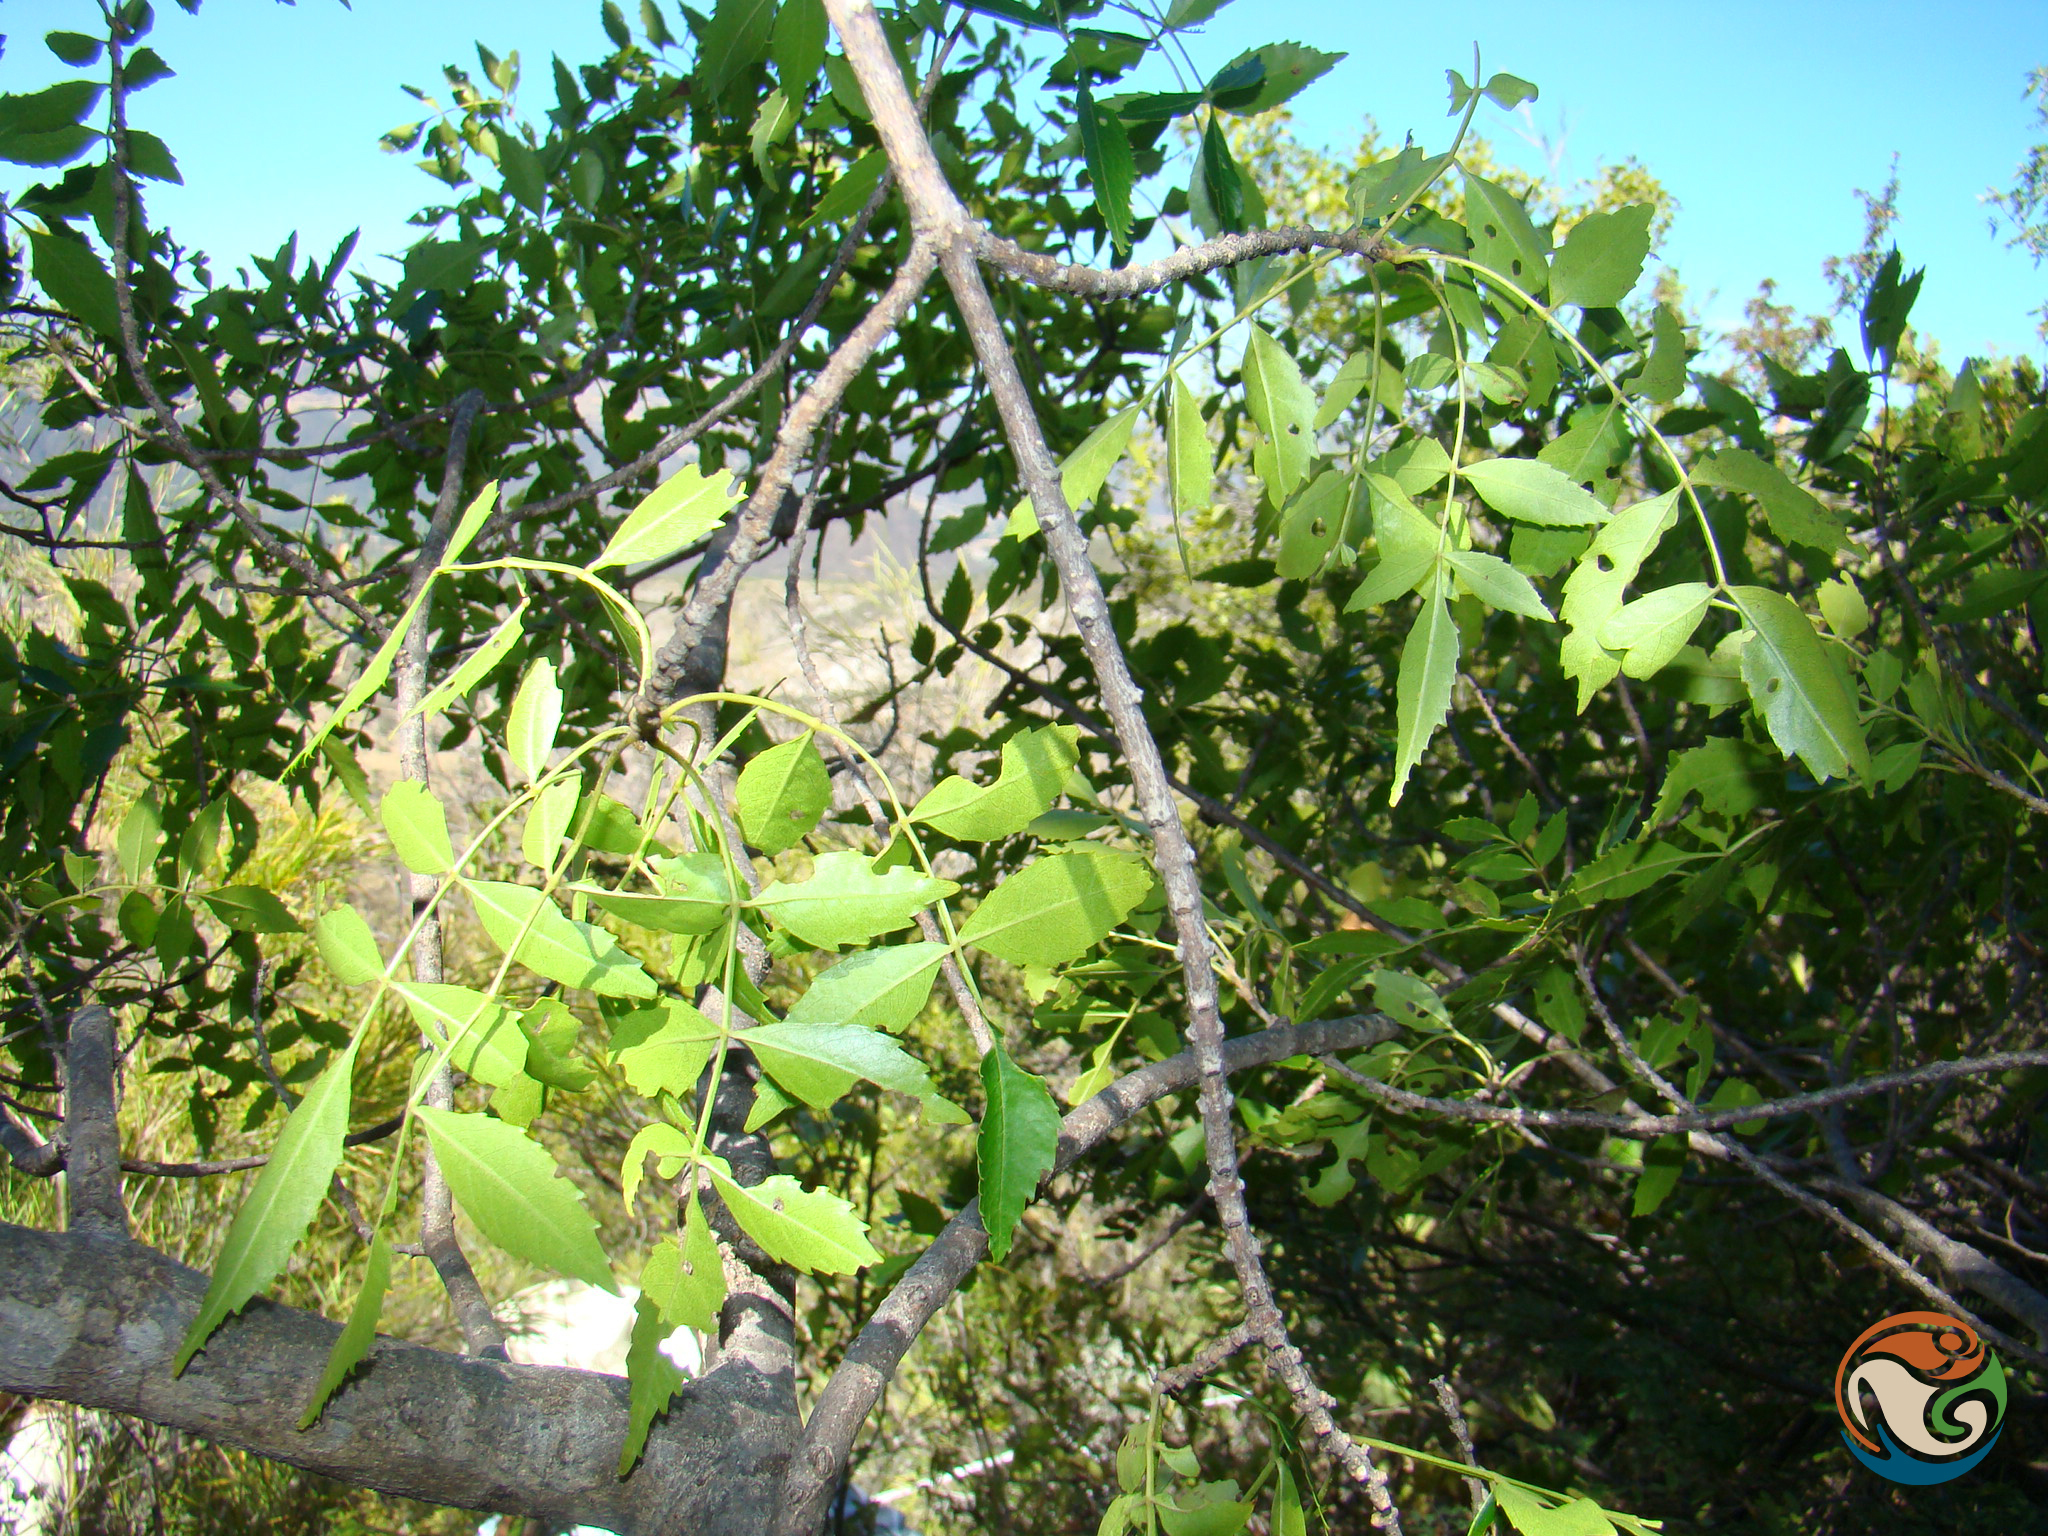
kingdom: Plantae
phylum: Tracheophyta
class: Magnoliopsida
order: Lamiales
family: Oleaceae
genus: Fraxinus
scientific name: Fraxinus purpusii
